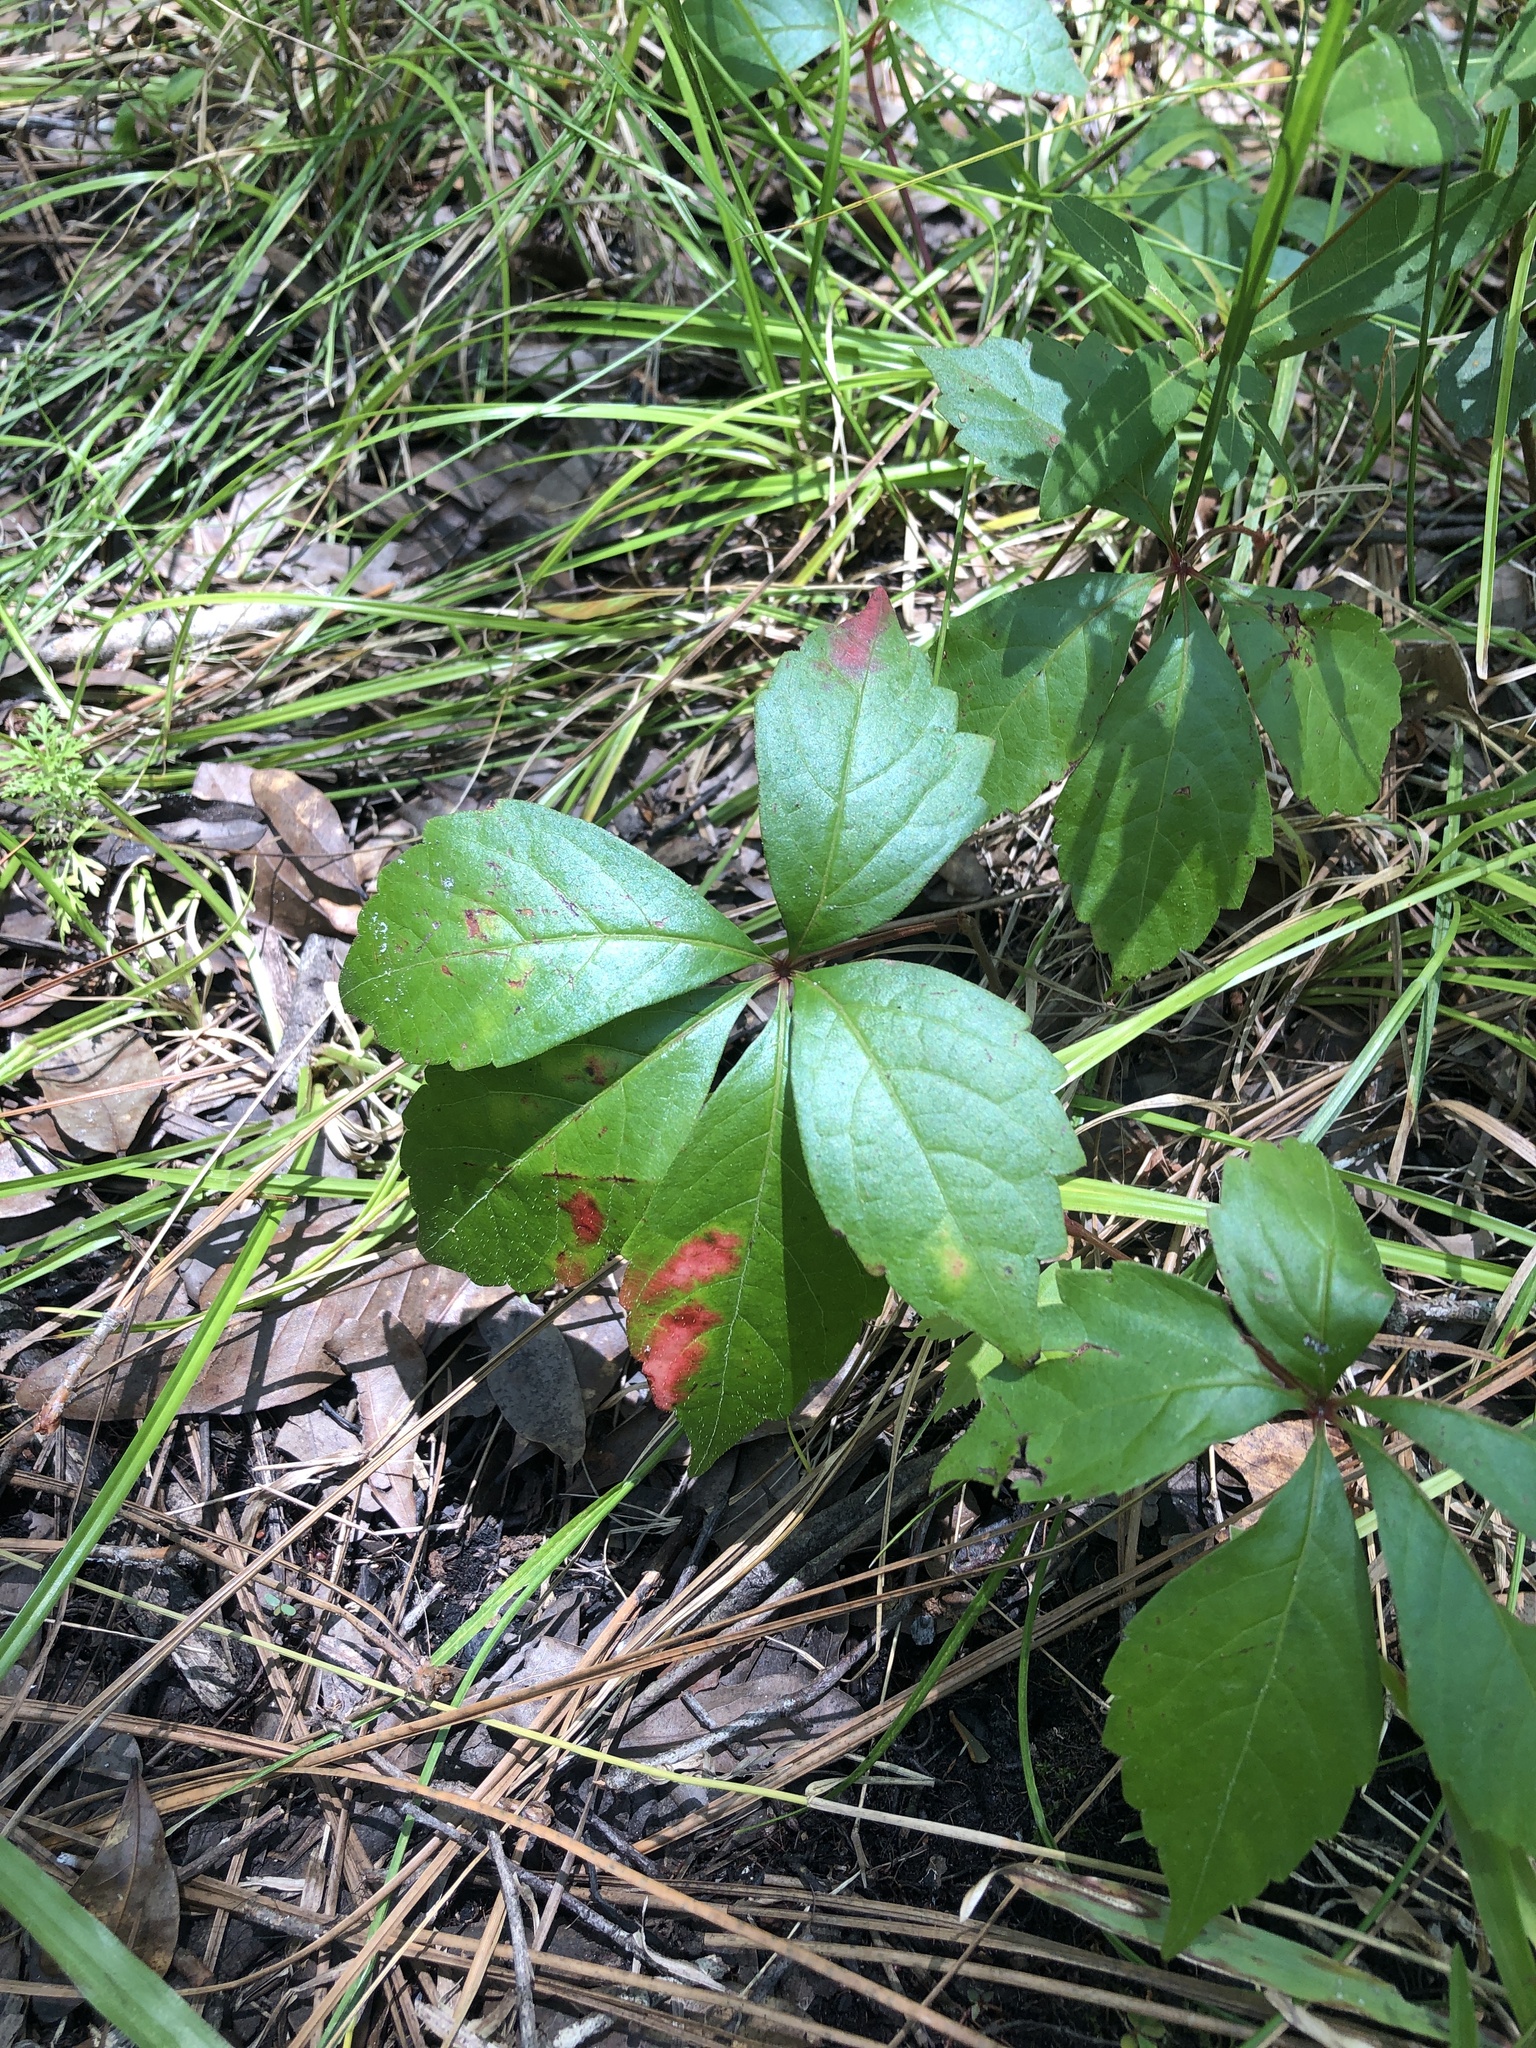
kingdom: Plantae
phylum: Tracheophyta
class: Magnoliopsida
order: Vitales
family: Vitaceae
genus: Parthenocissus
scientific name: Parthenocissus quinquefolia
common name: Virginia-creeper
